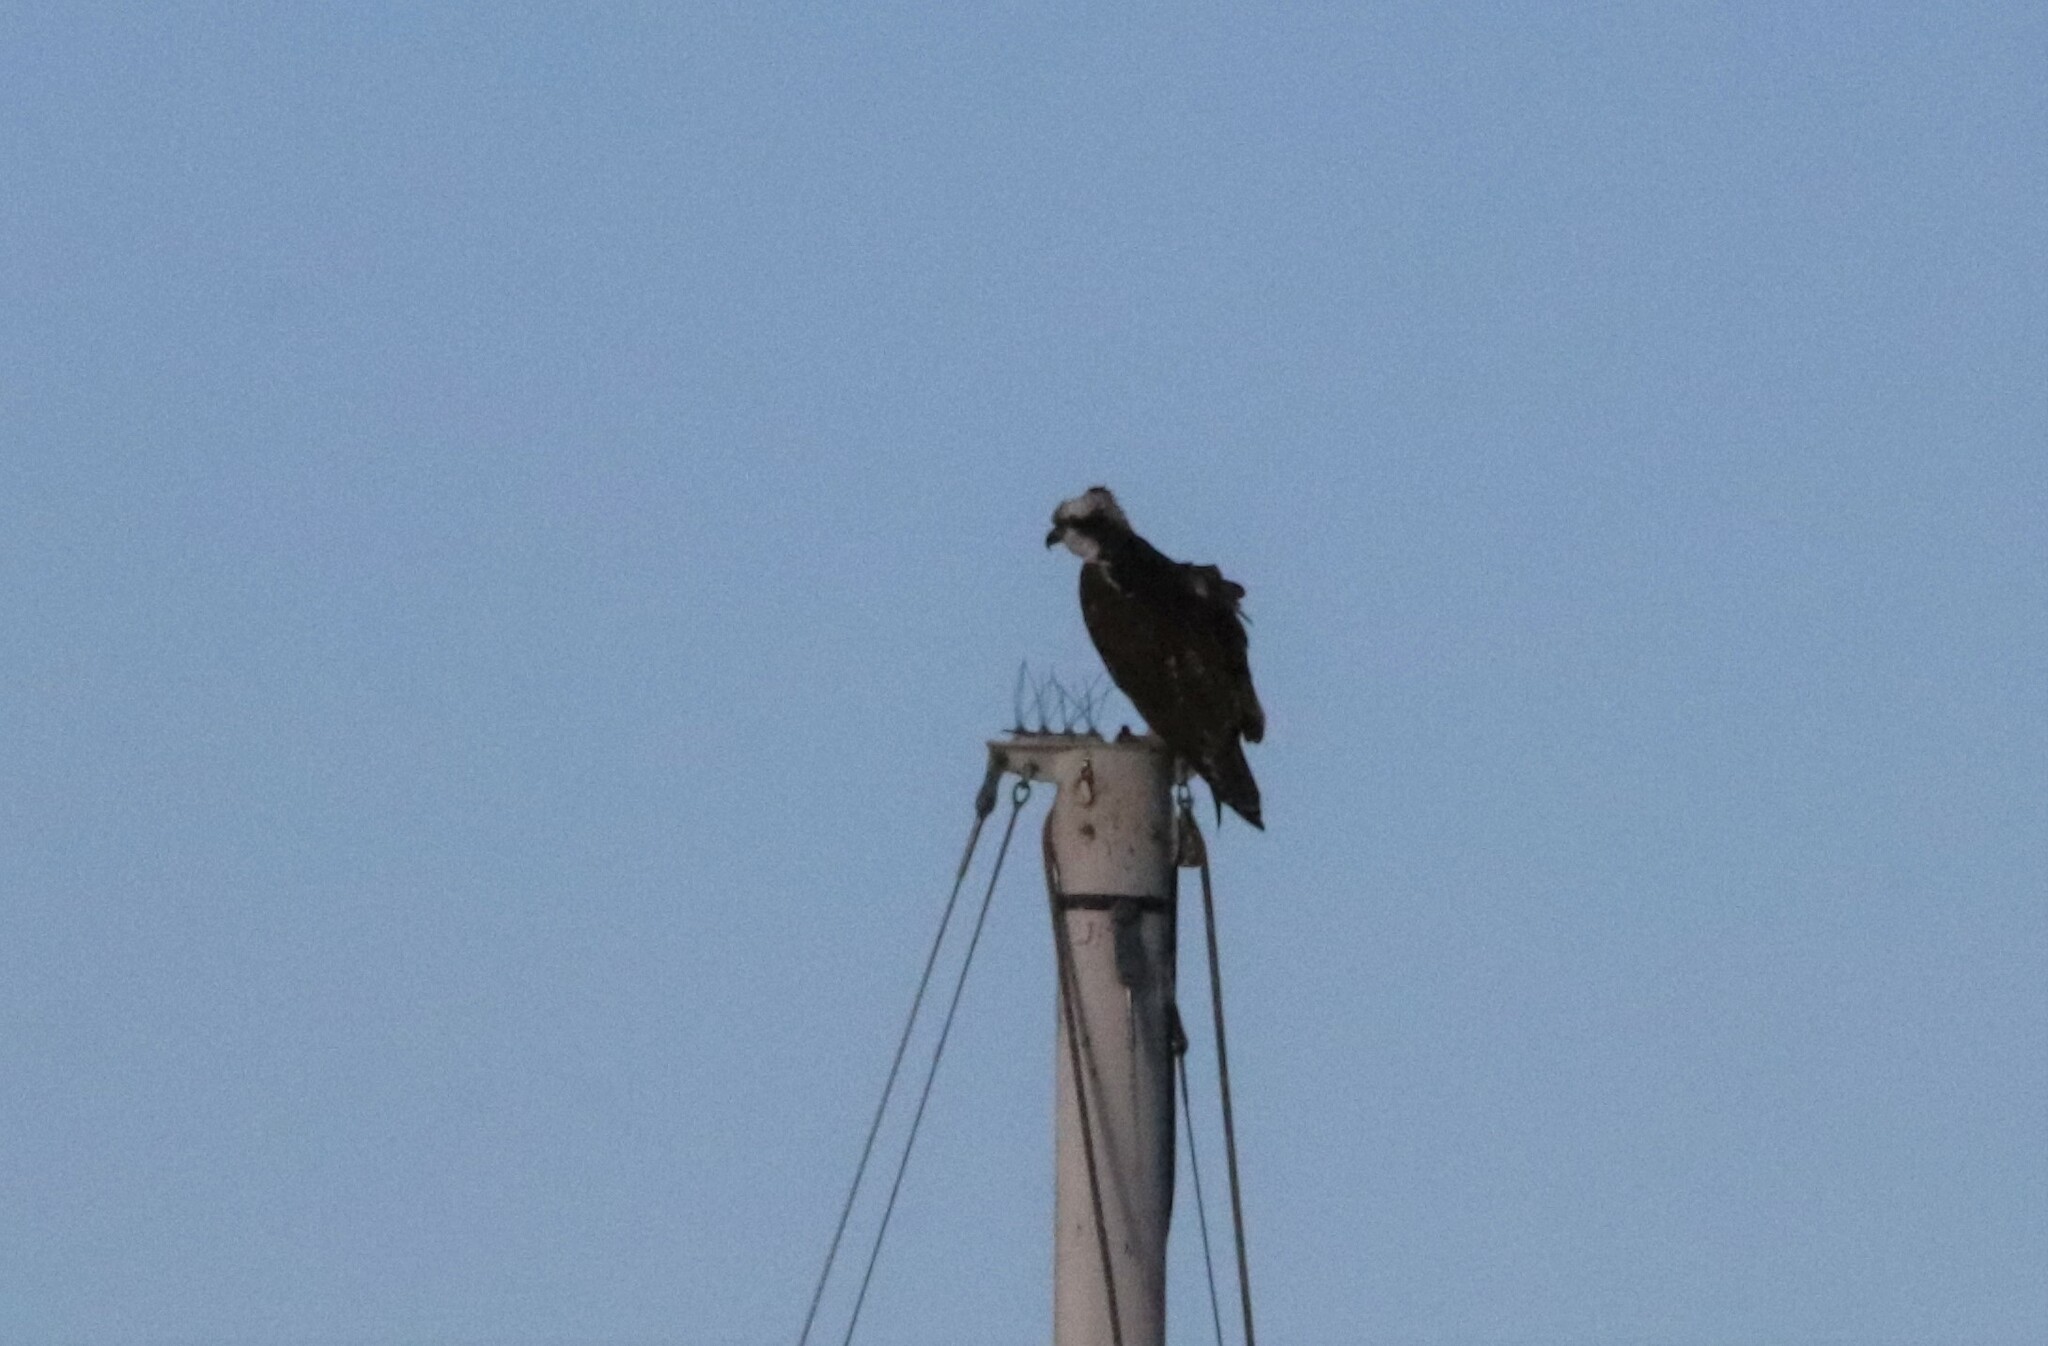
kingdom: Animalia
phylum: Chordata
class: Aves
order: Accipitriformes
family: Pandionidae
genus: Pandion
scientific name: Pandion haliaetus
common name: Osprey
